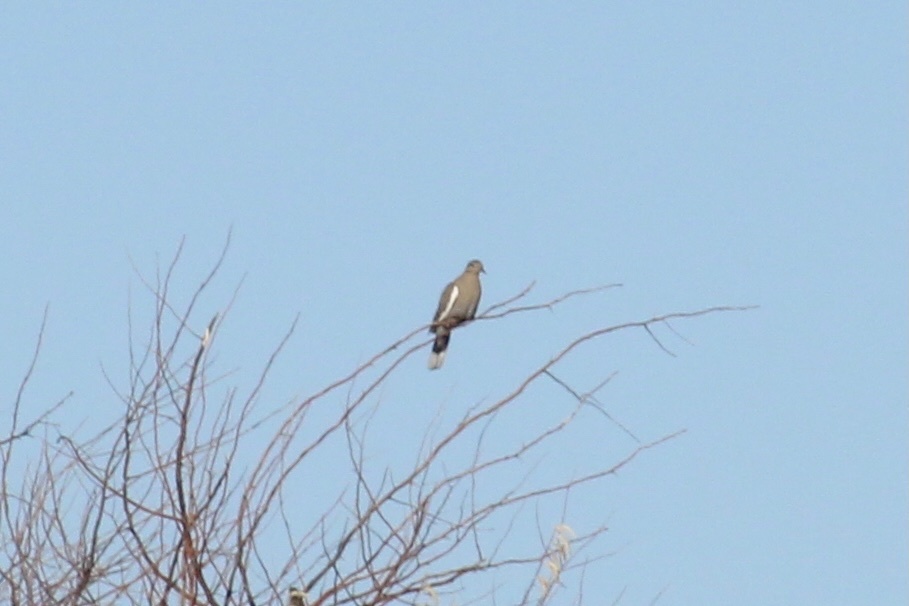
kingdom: Animalia
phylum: Chordata
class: Aves
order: Columbiformes
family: Columbidae
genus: Zenaida
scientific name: Zenaida asiatica
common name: White-winged dove
